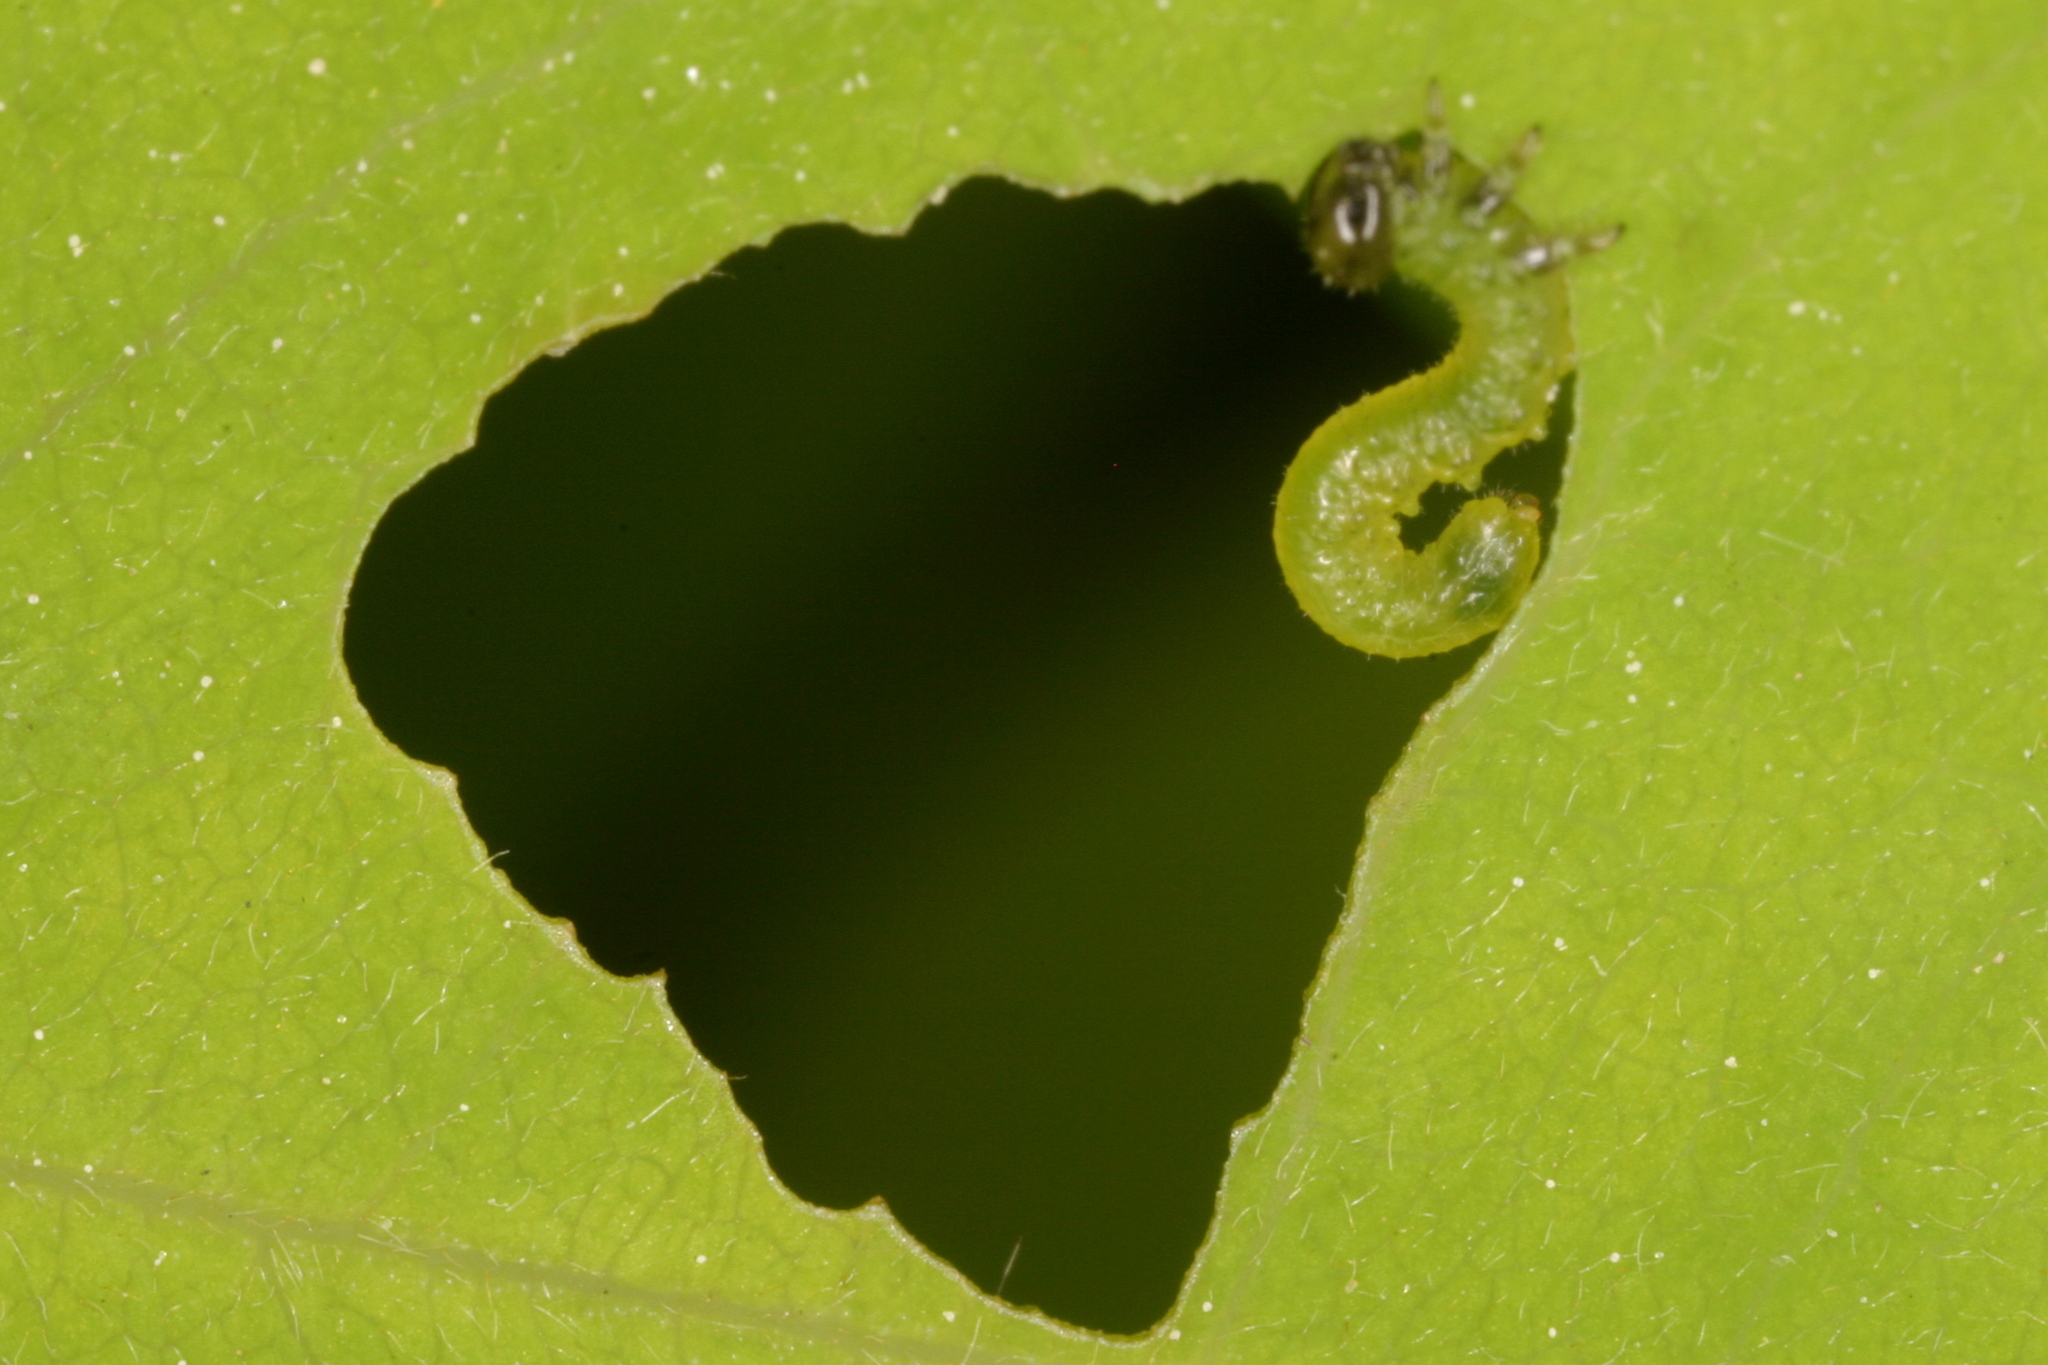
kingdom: Animalia
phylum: Arthropoda
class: Insecta
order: Hymenoptera
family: Tenthredinidae
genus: Euura
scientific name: Euura tibialis
